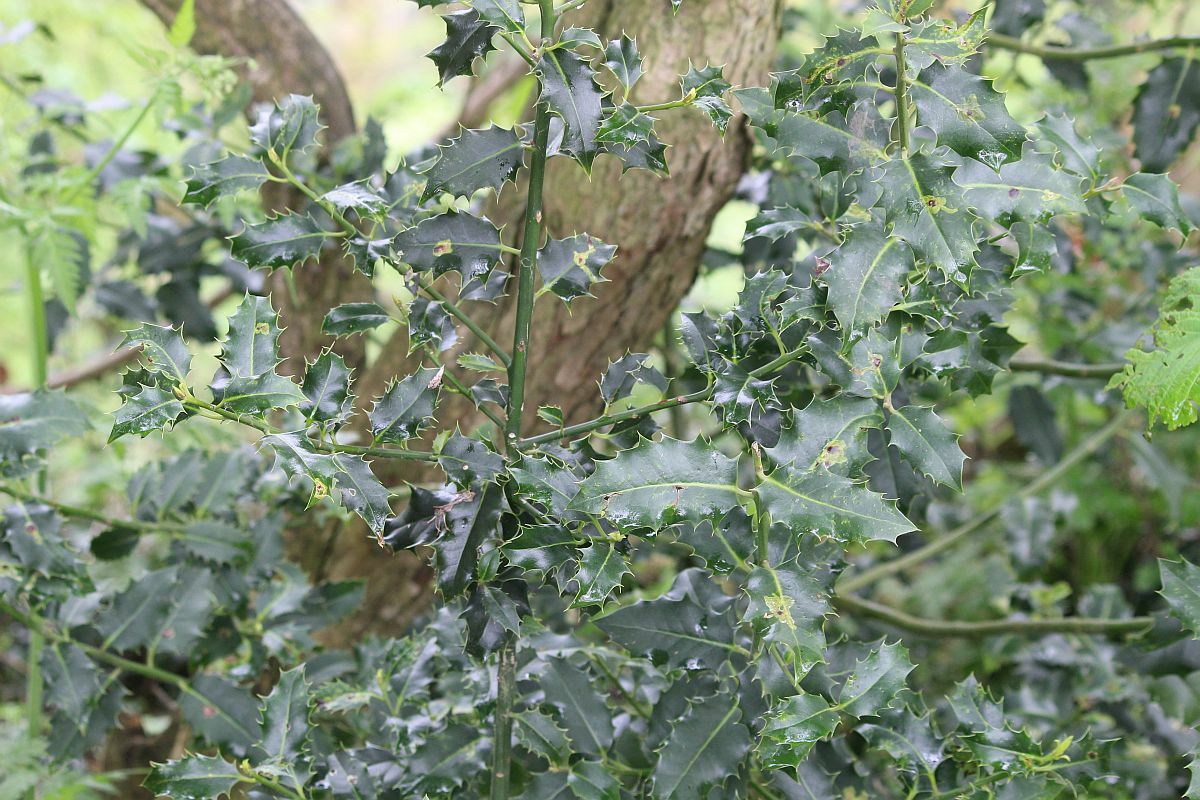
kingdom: Plantae
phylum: Tracheophyta
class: Magnoliopsida
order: Aquifoliales
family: Aquifoliaceae
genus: Ilex
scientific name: Ilex aquifolium
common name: English holly
